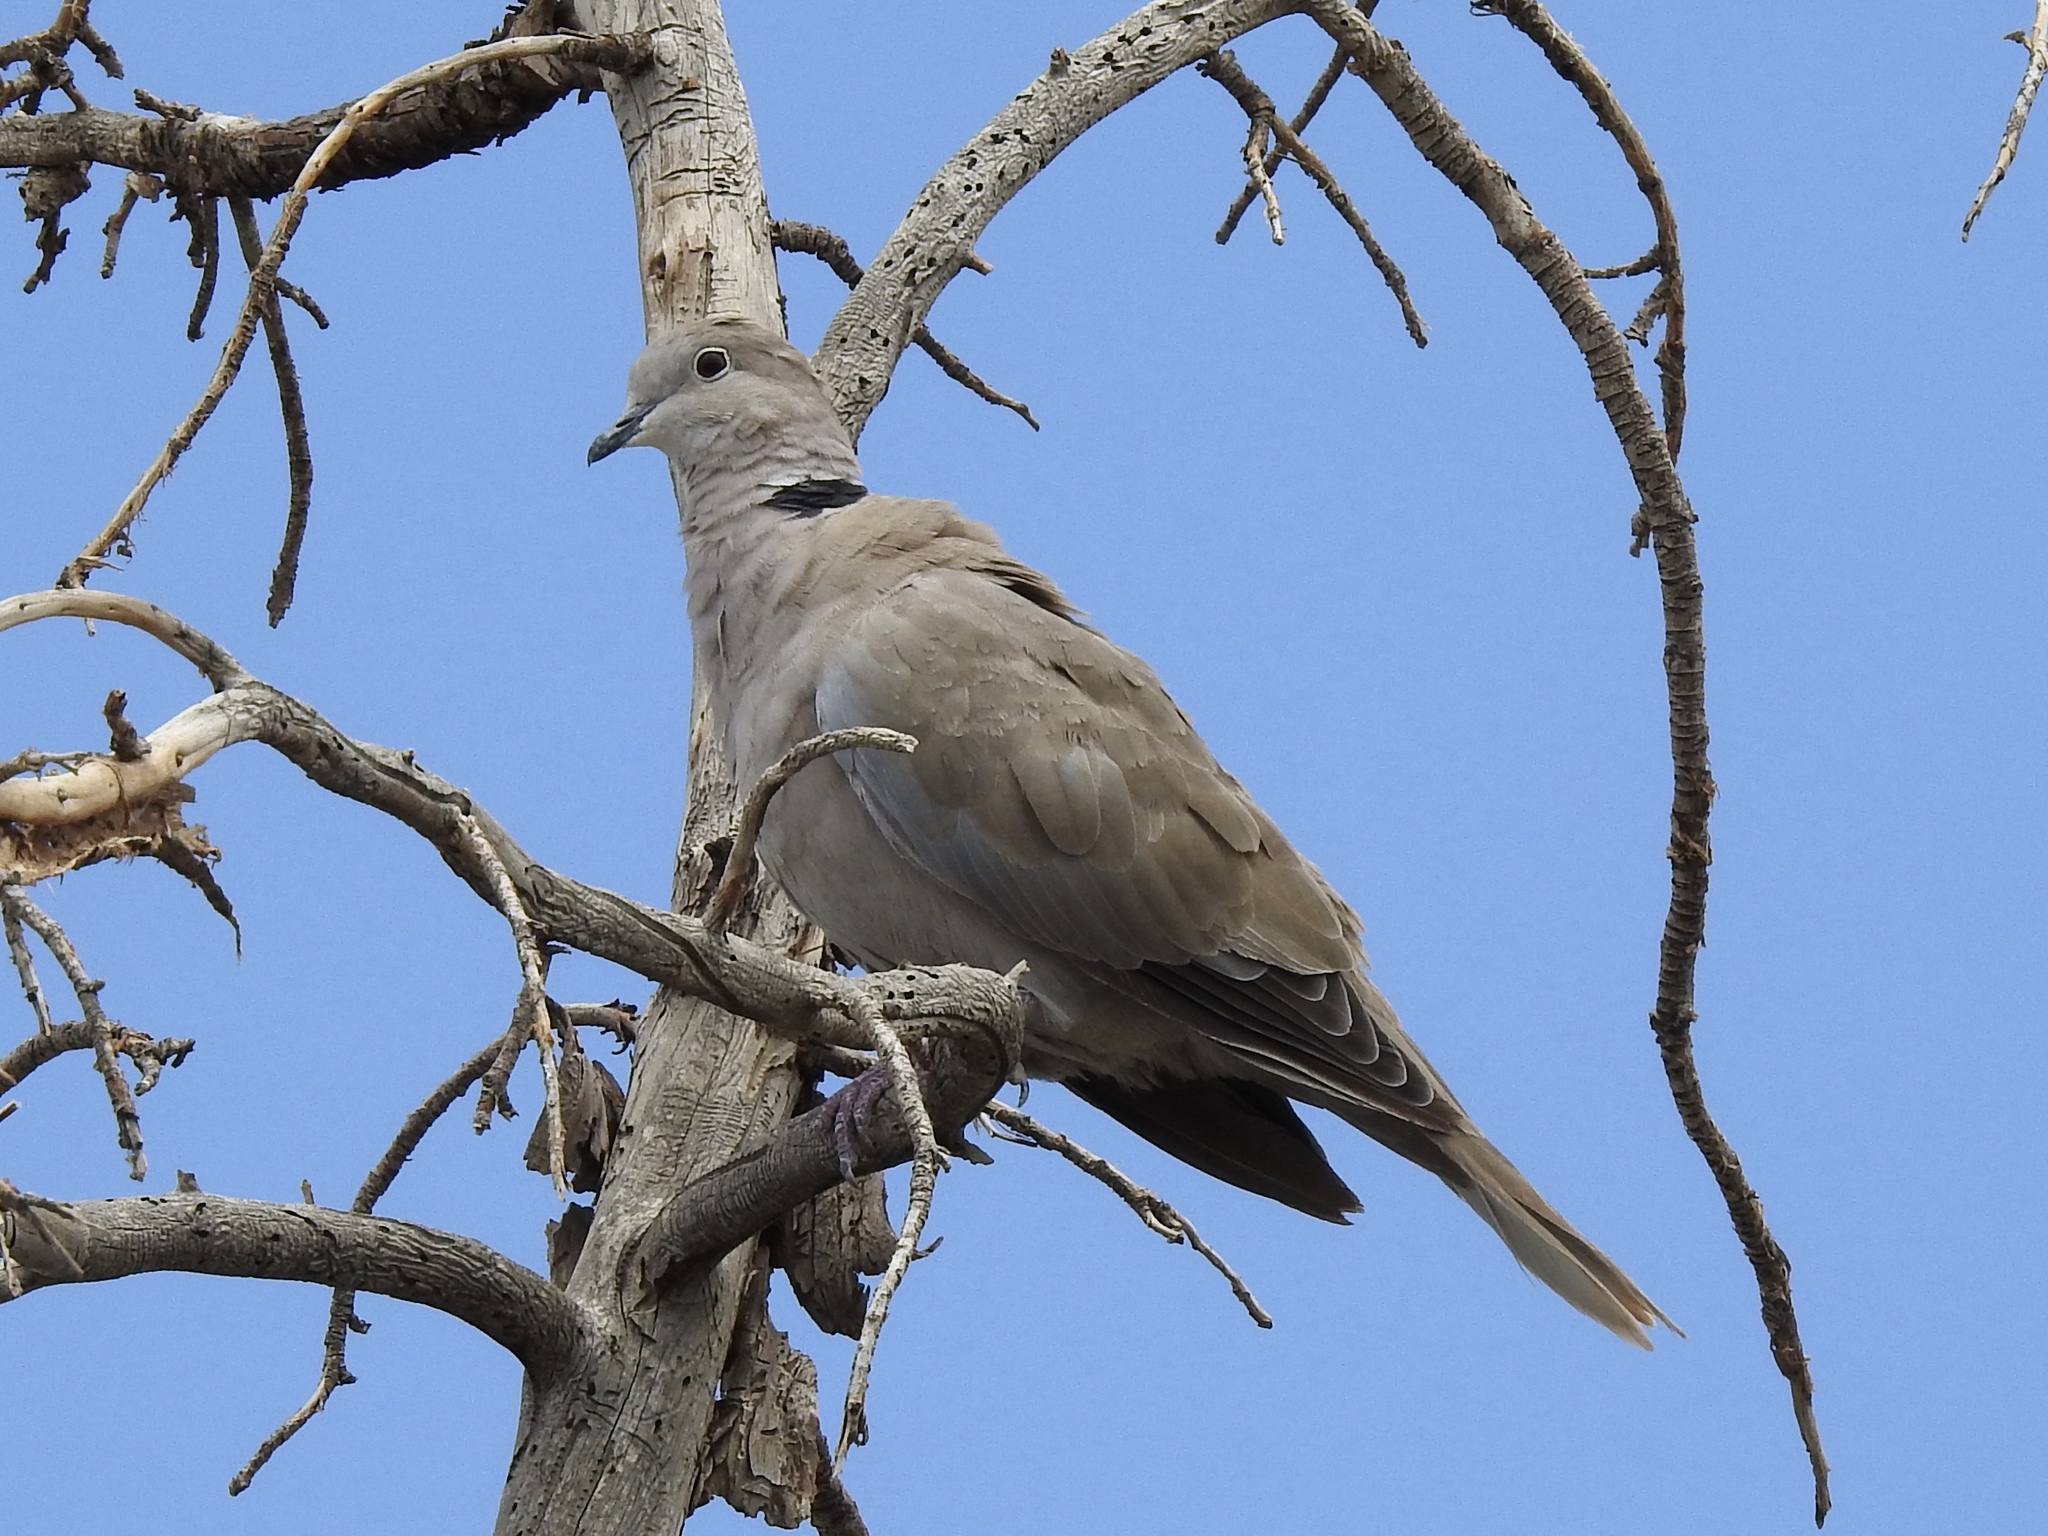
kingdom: Animalia
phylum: Chordata
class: Aves
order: Columbiformes
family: Columbidae
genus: Streptopelia
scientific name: Streptopelia decaocto
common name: Eurasian collared dove
